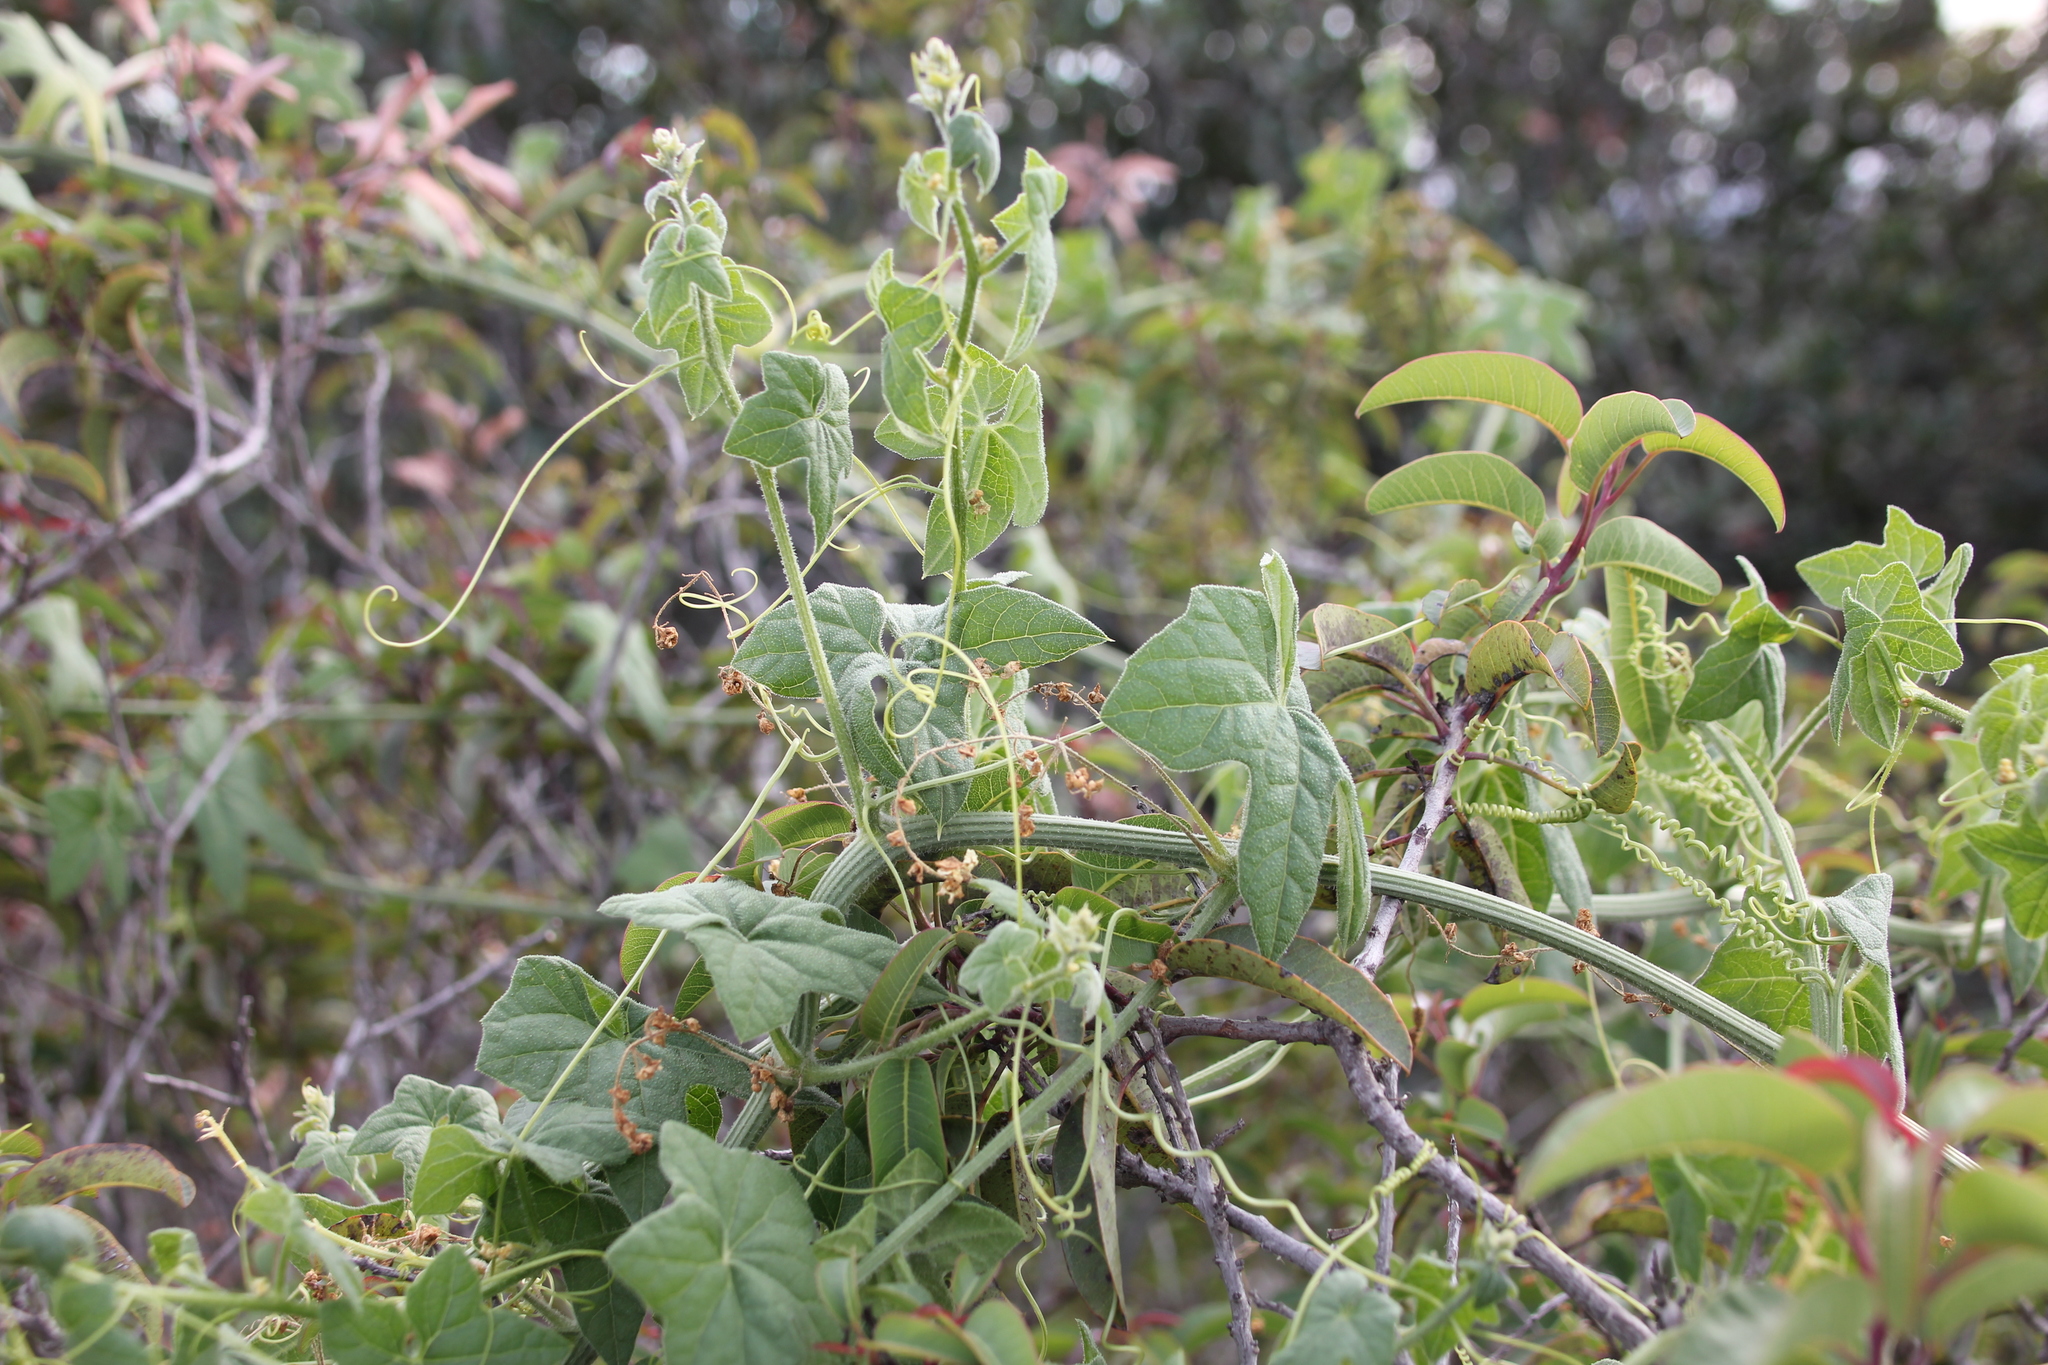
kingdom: Plantae
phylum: Tracheophyta
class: Magnoliopsida
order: Cucurbitales
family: Cucurbitaceae
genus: Marah
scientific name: Marah macrocarpa
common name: Cucamonga manroot
